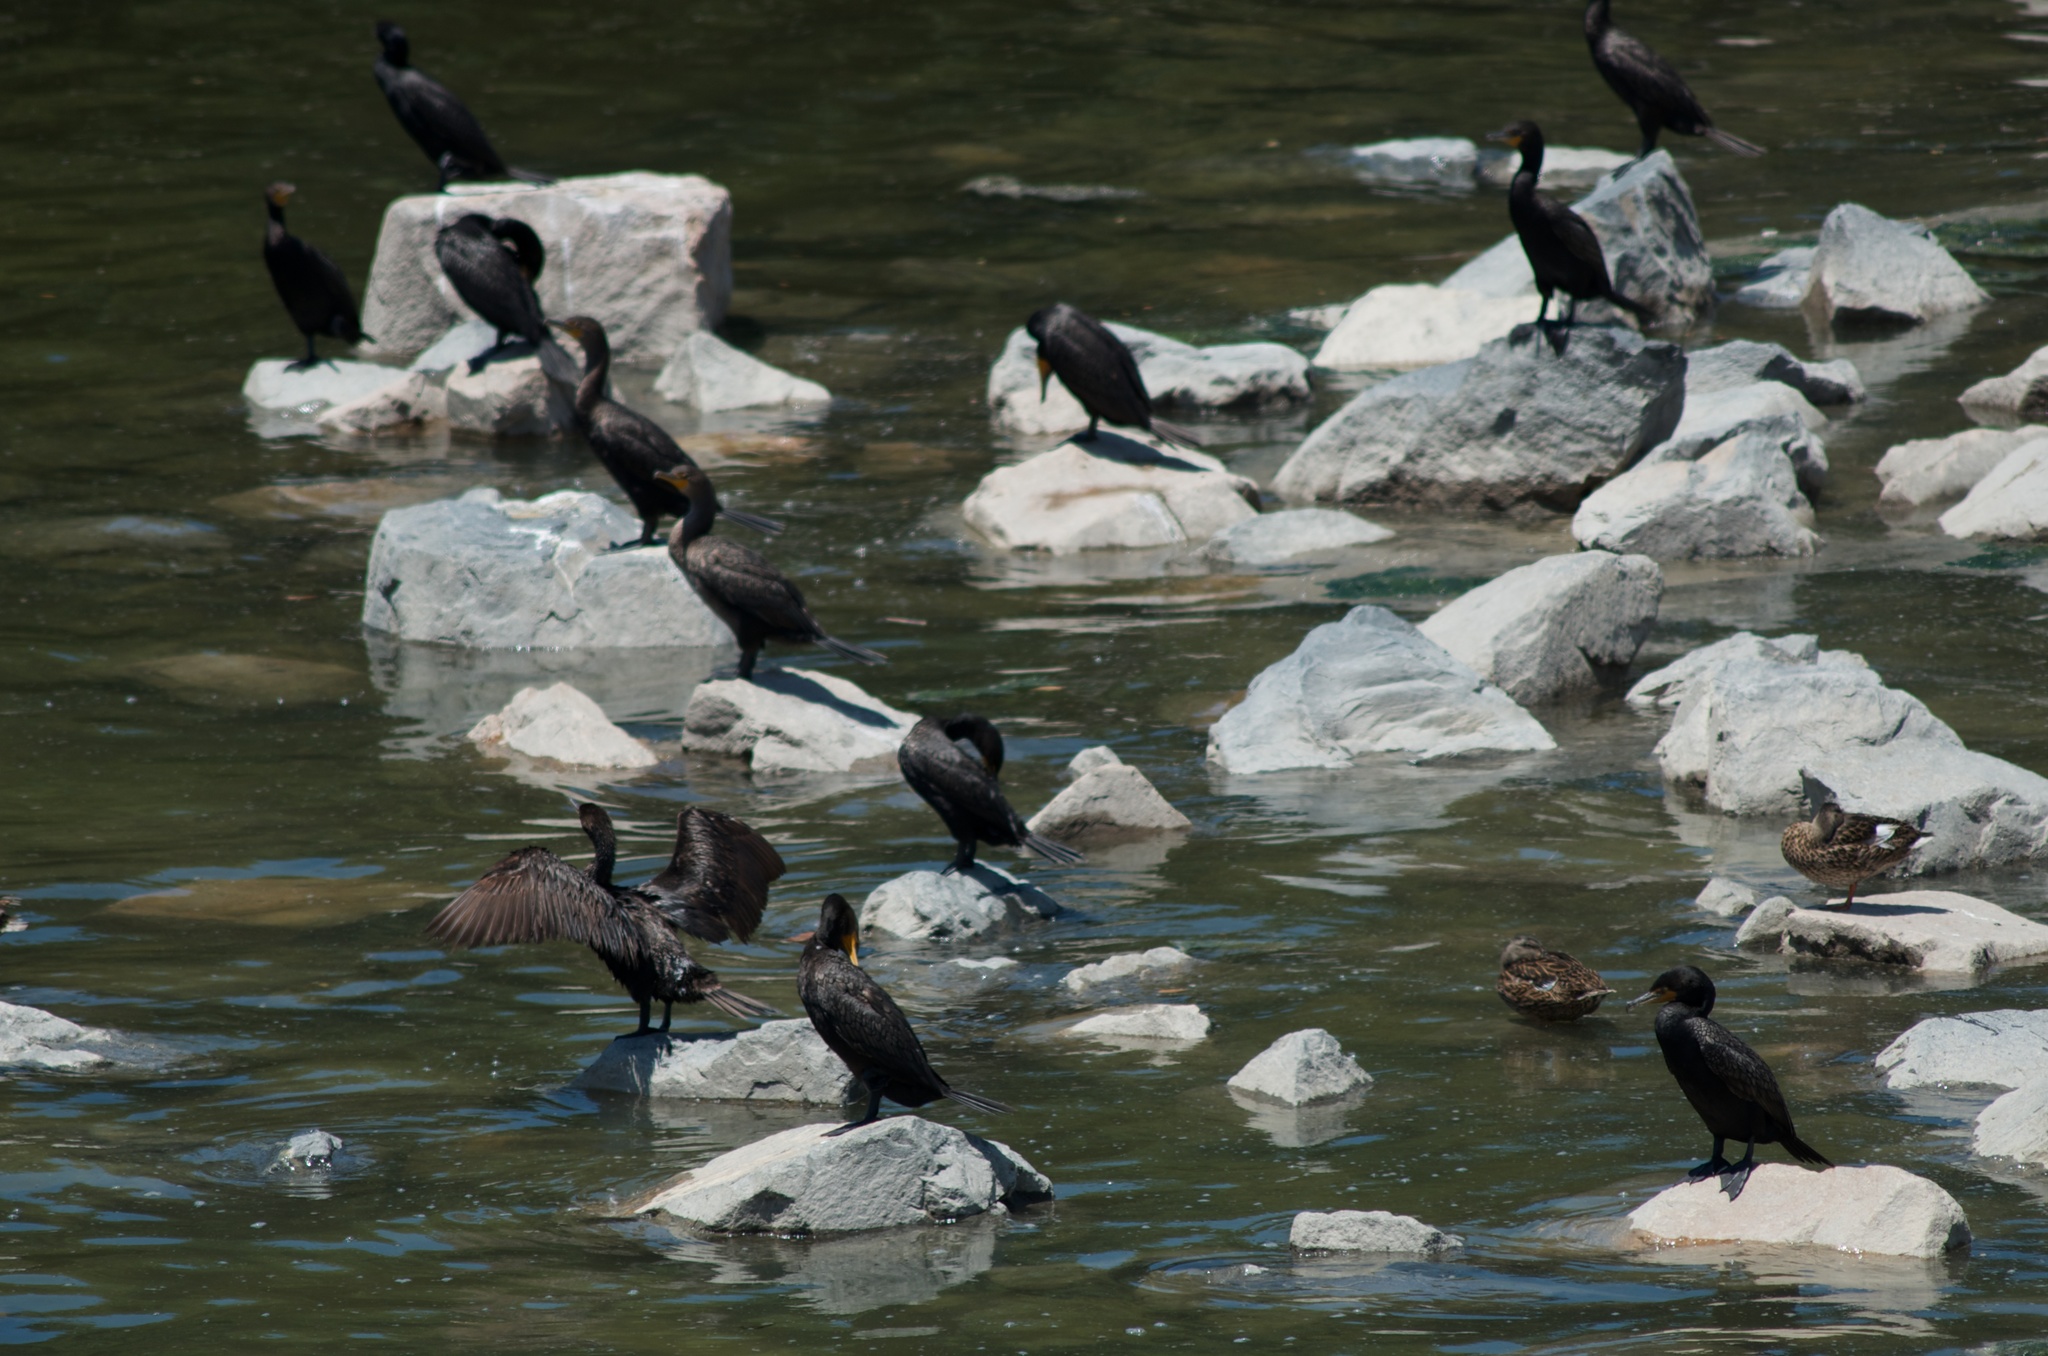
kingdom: Animalia
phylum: Chordata
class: Aves
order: Suliformes
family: Phalacrocoracidae
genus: Phalacrocorax
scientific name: Phalacrocorax auritus
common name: Double-crested cormorant
